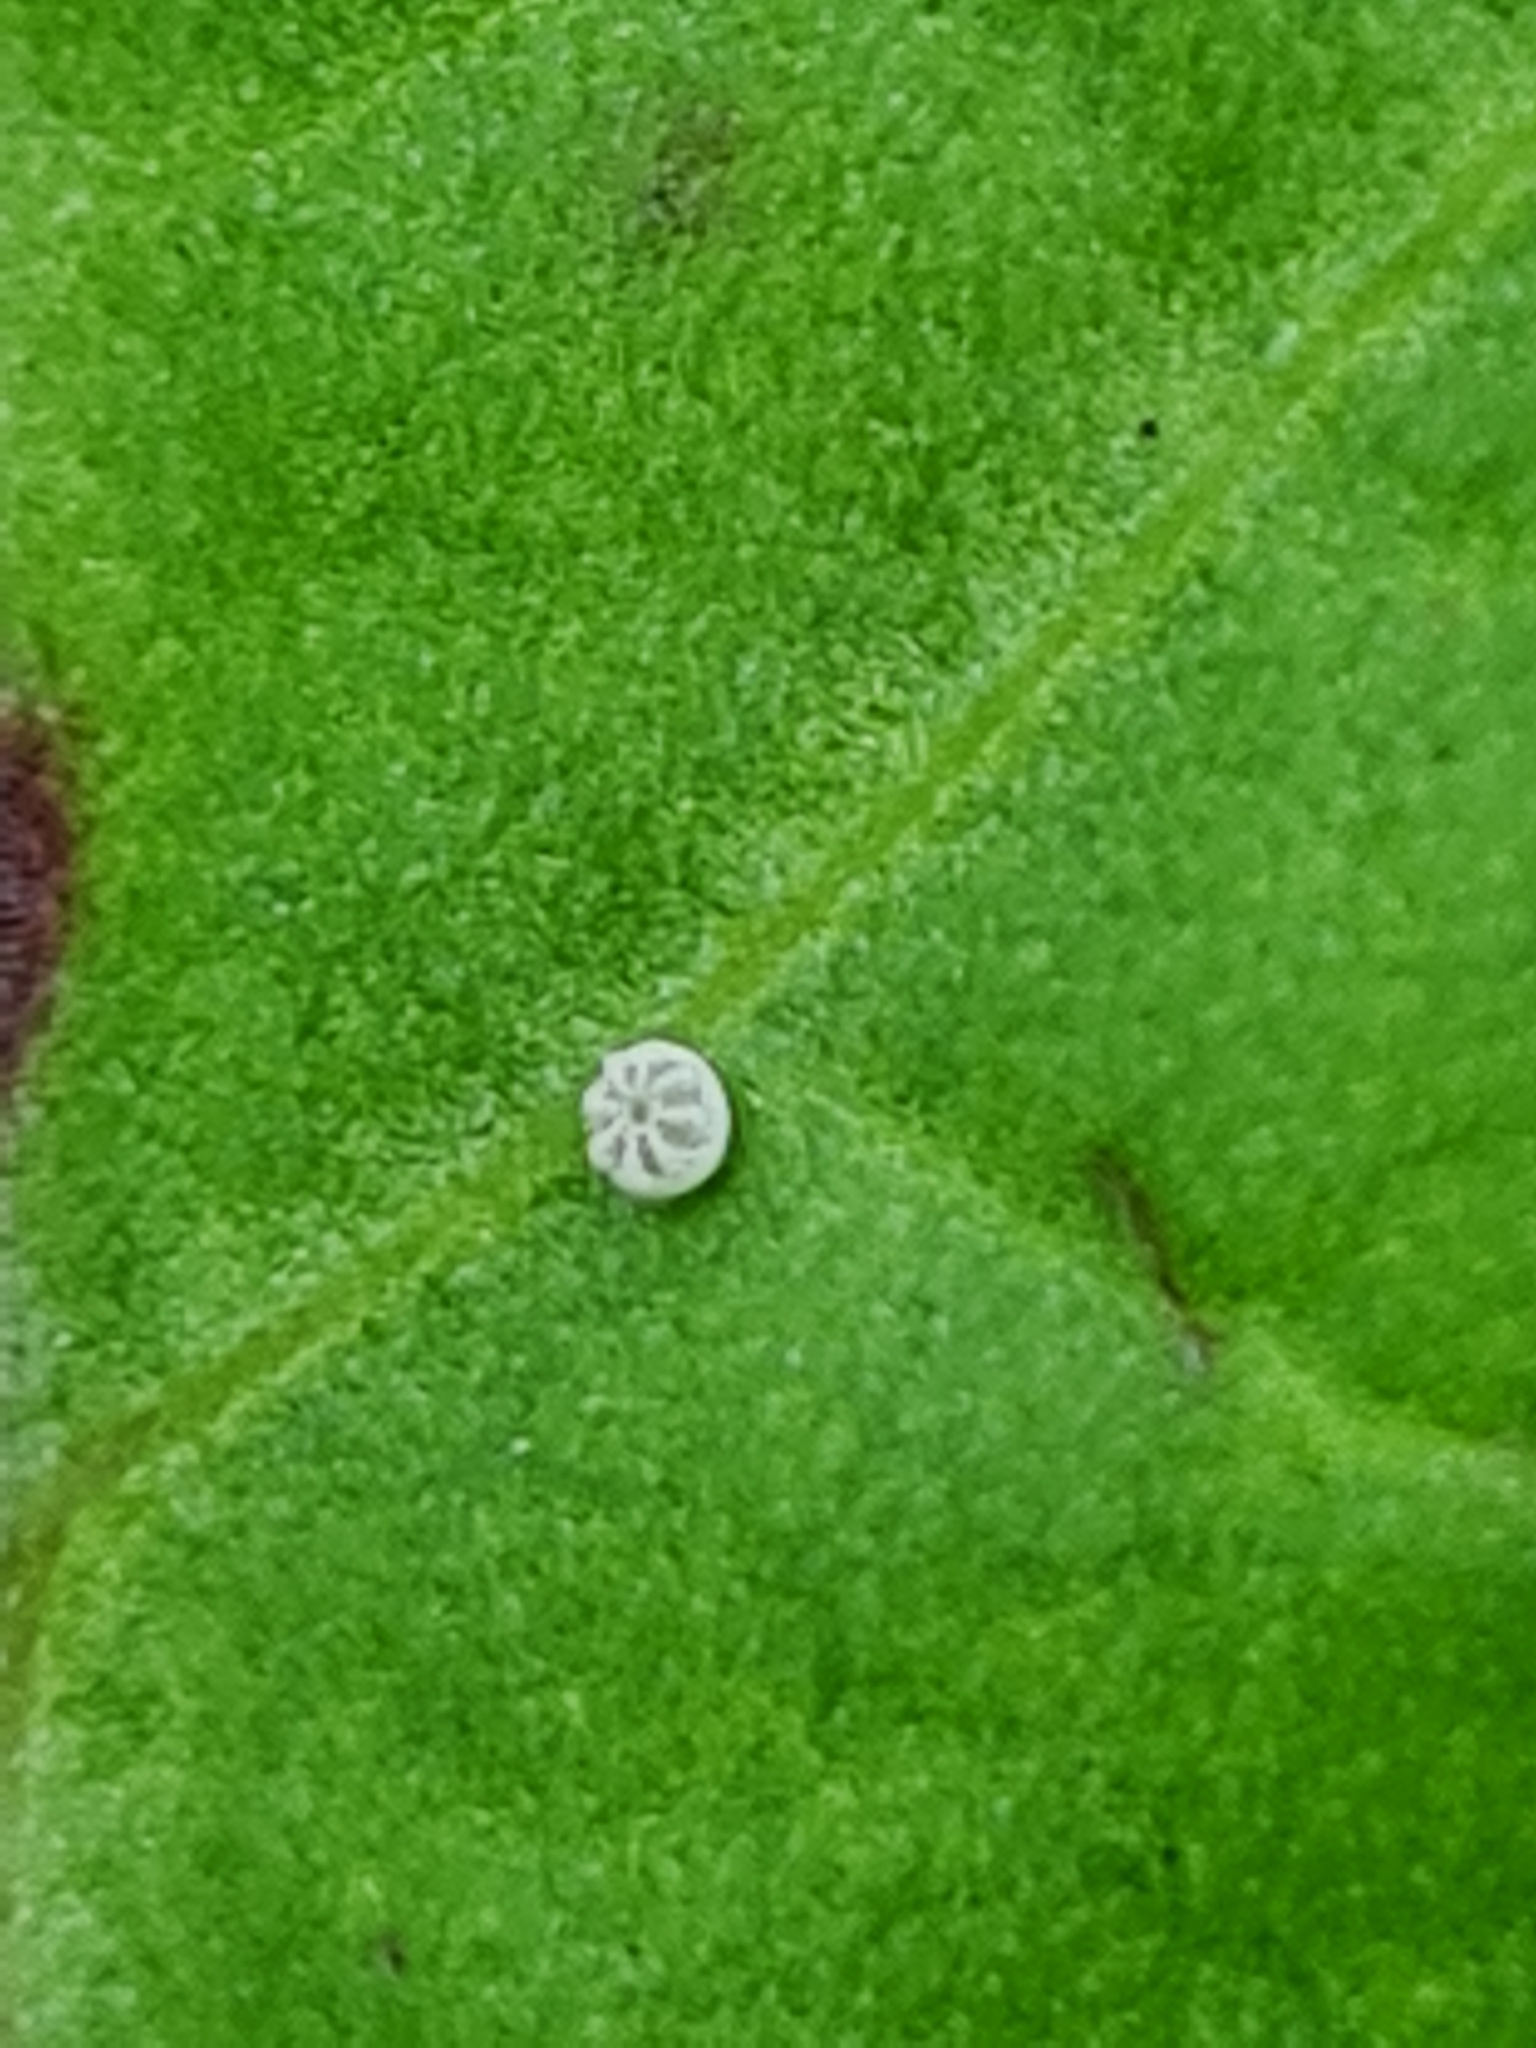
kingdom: Animalia
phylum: Arthropoda
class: Insecta
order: Lepidoptera
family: Lycaenidae
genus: Lycaena
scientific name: Lycaena dispar
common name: Large copper
